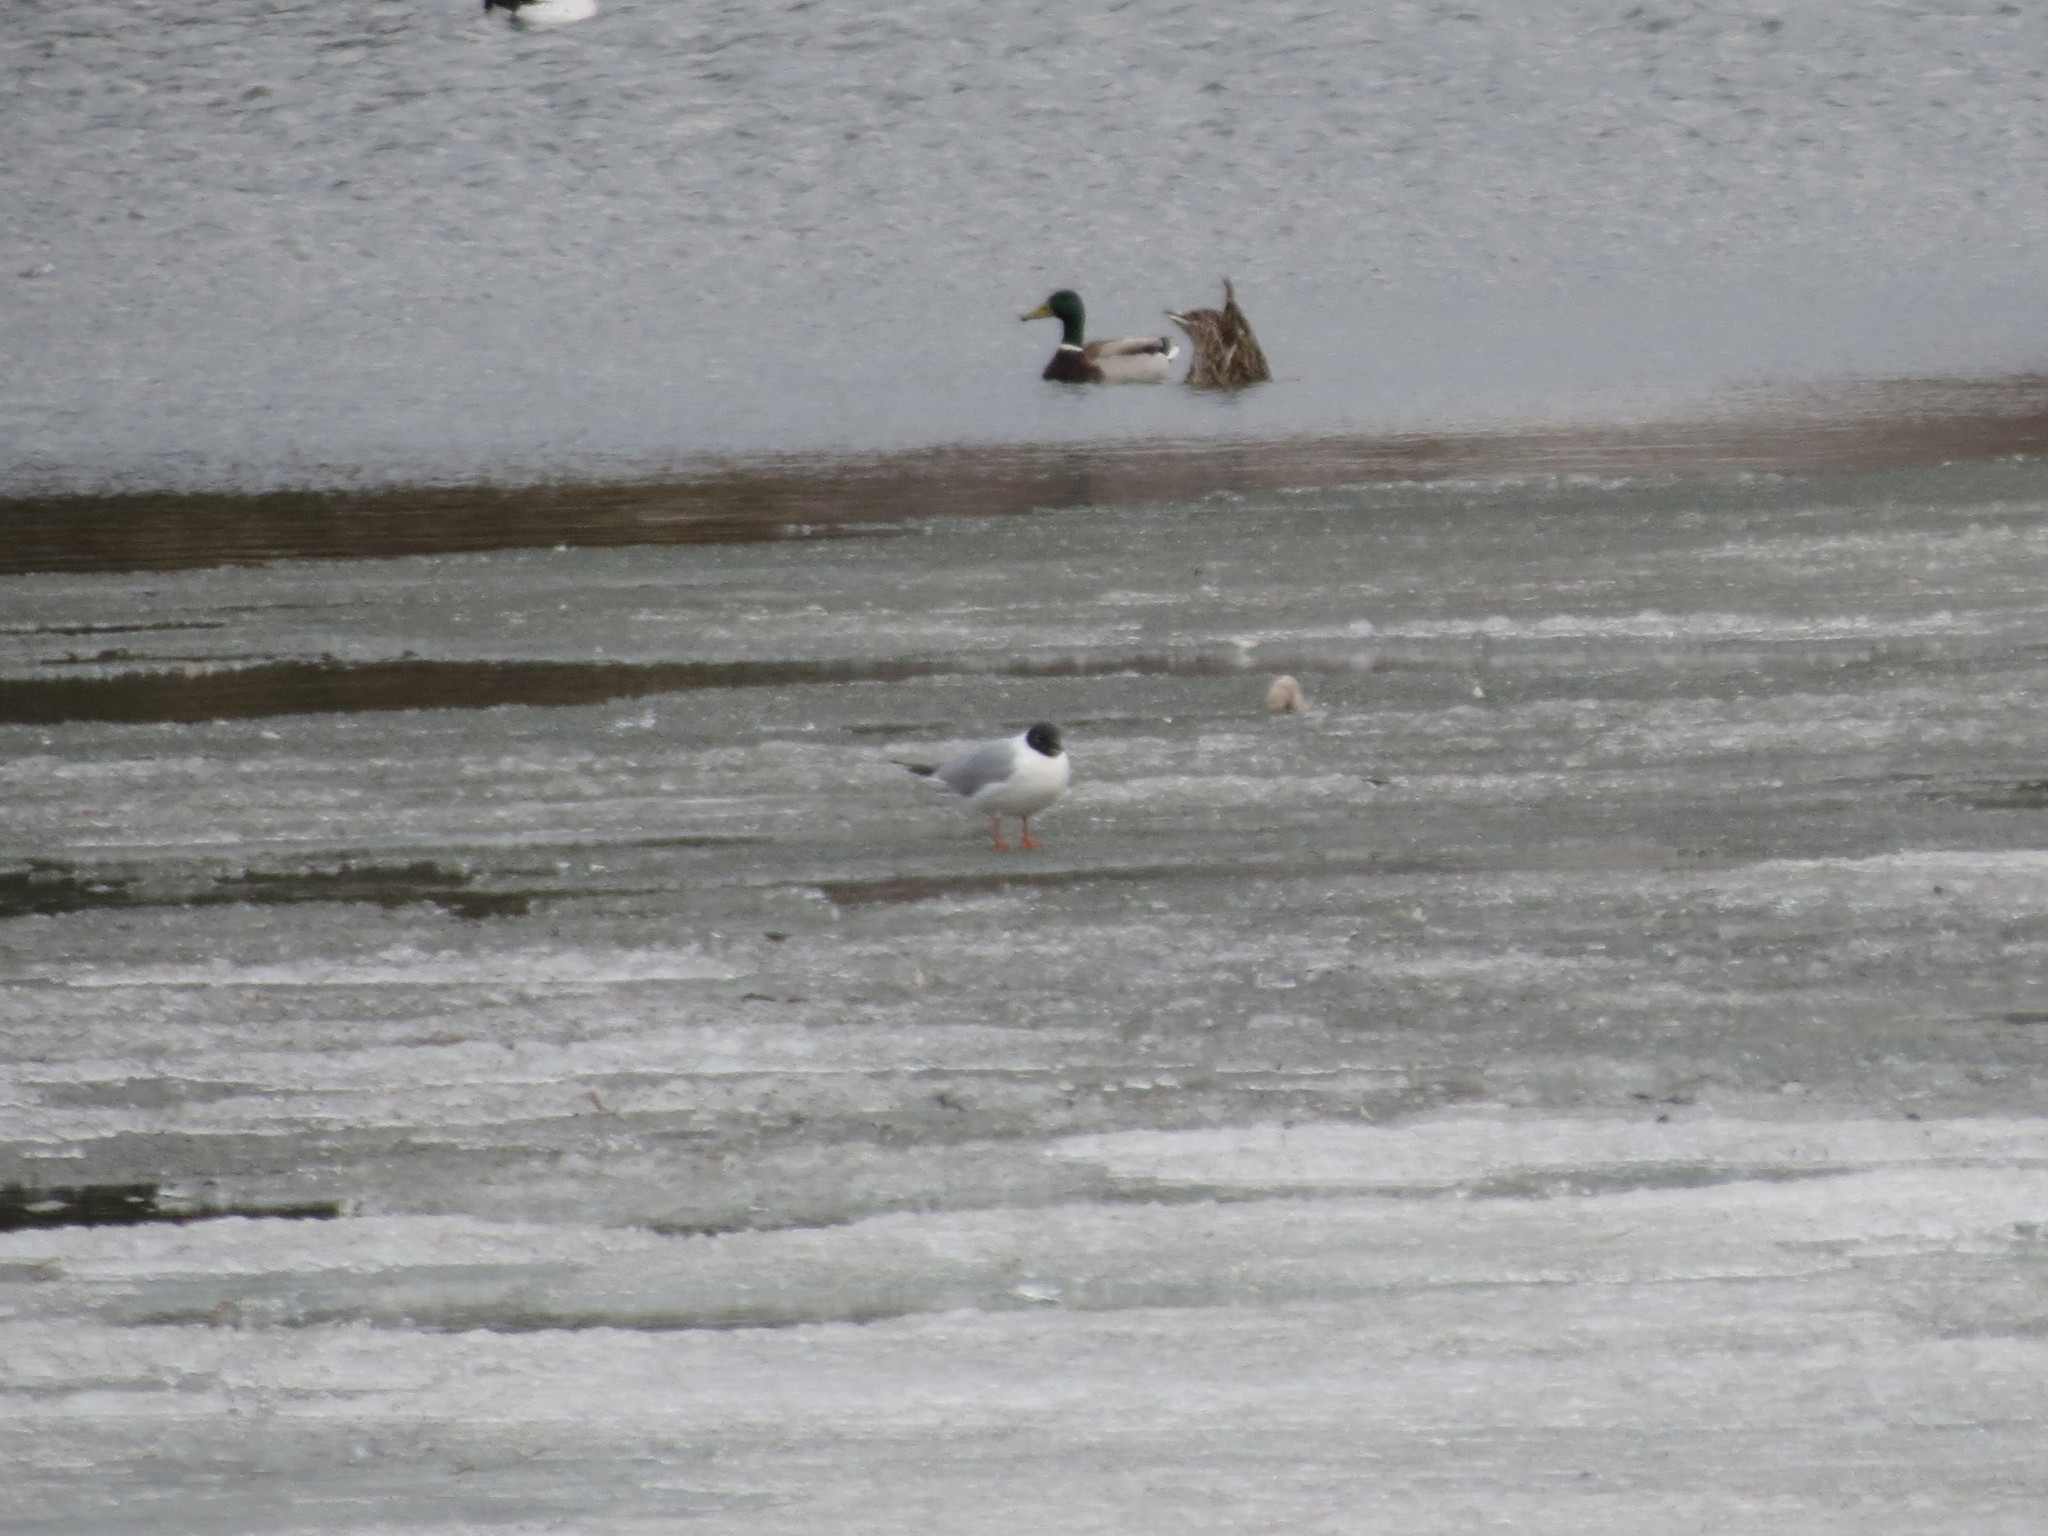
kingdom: Animalia
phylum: Chordata
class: Aves
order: Charadriiformes
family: Laridae
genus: Chroicocephalus
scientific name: Chroicocephalus philadelphia
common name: Bonaparte's gull
